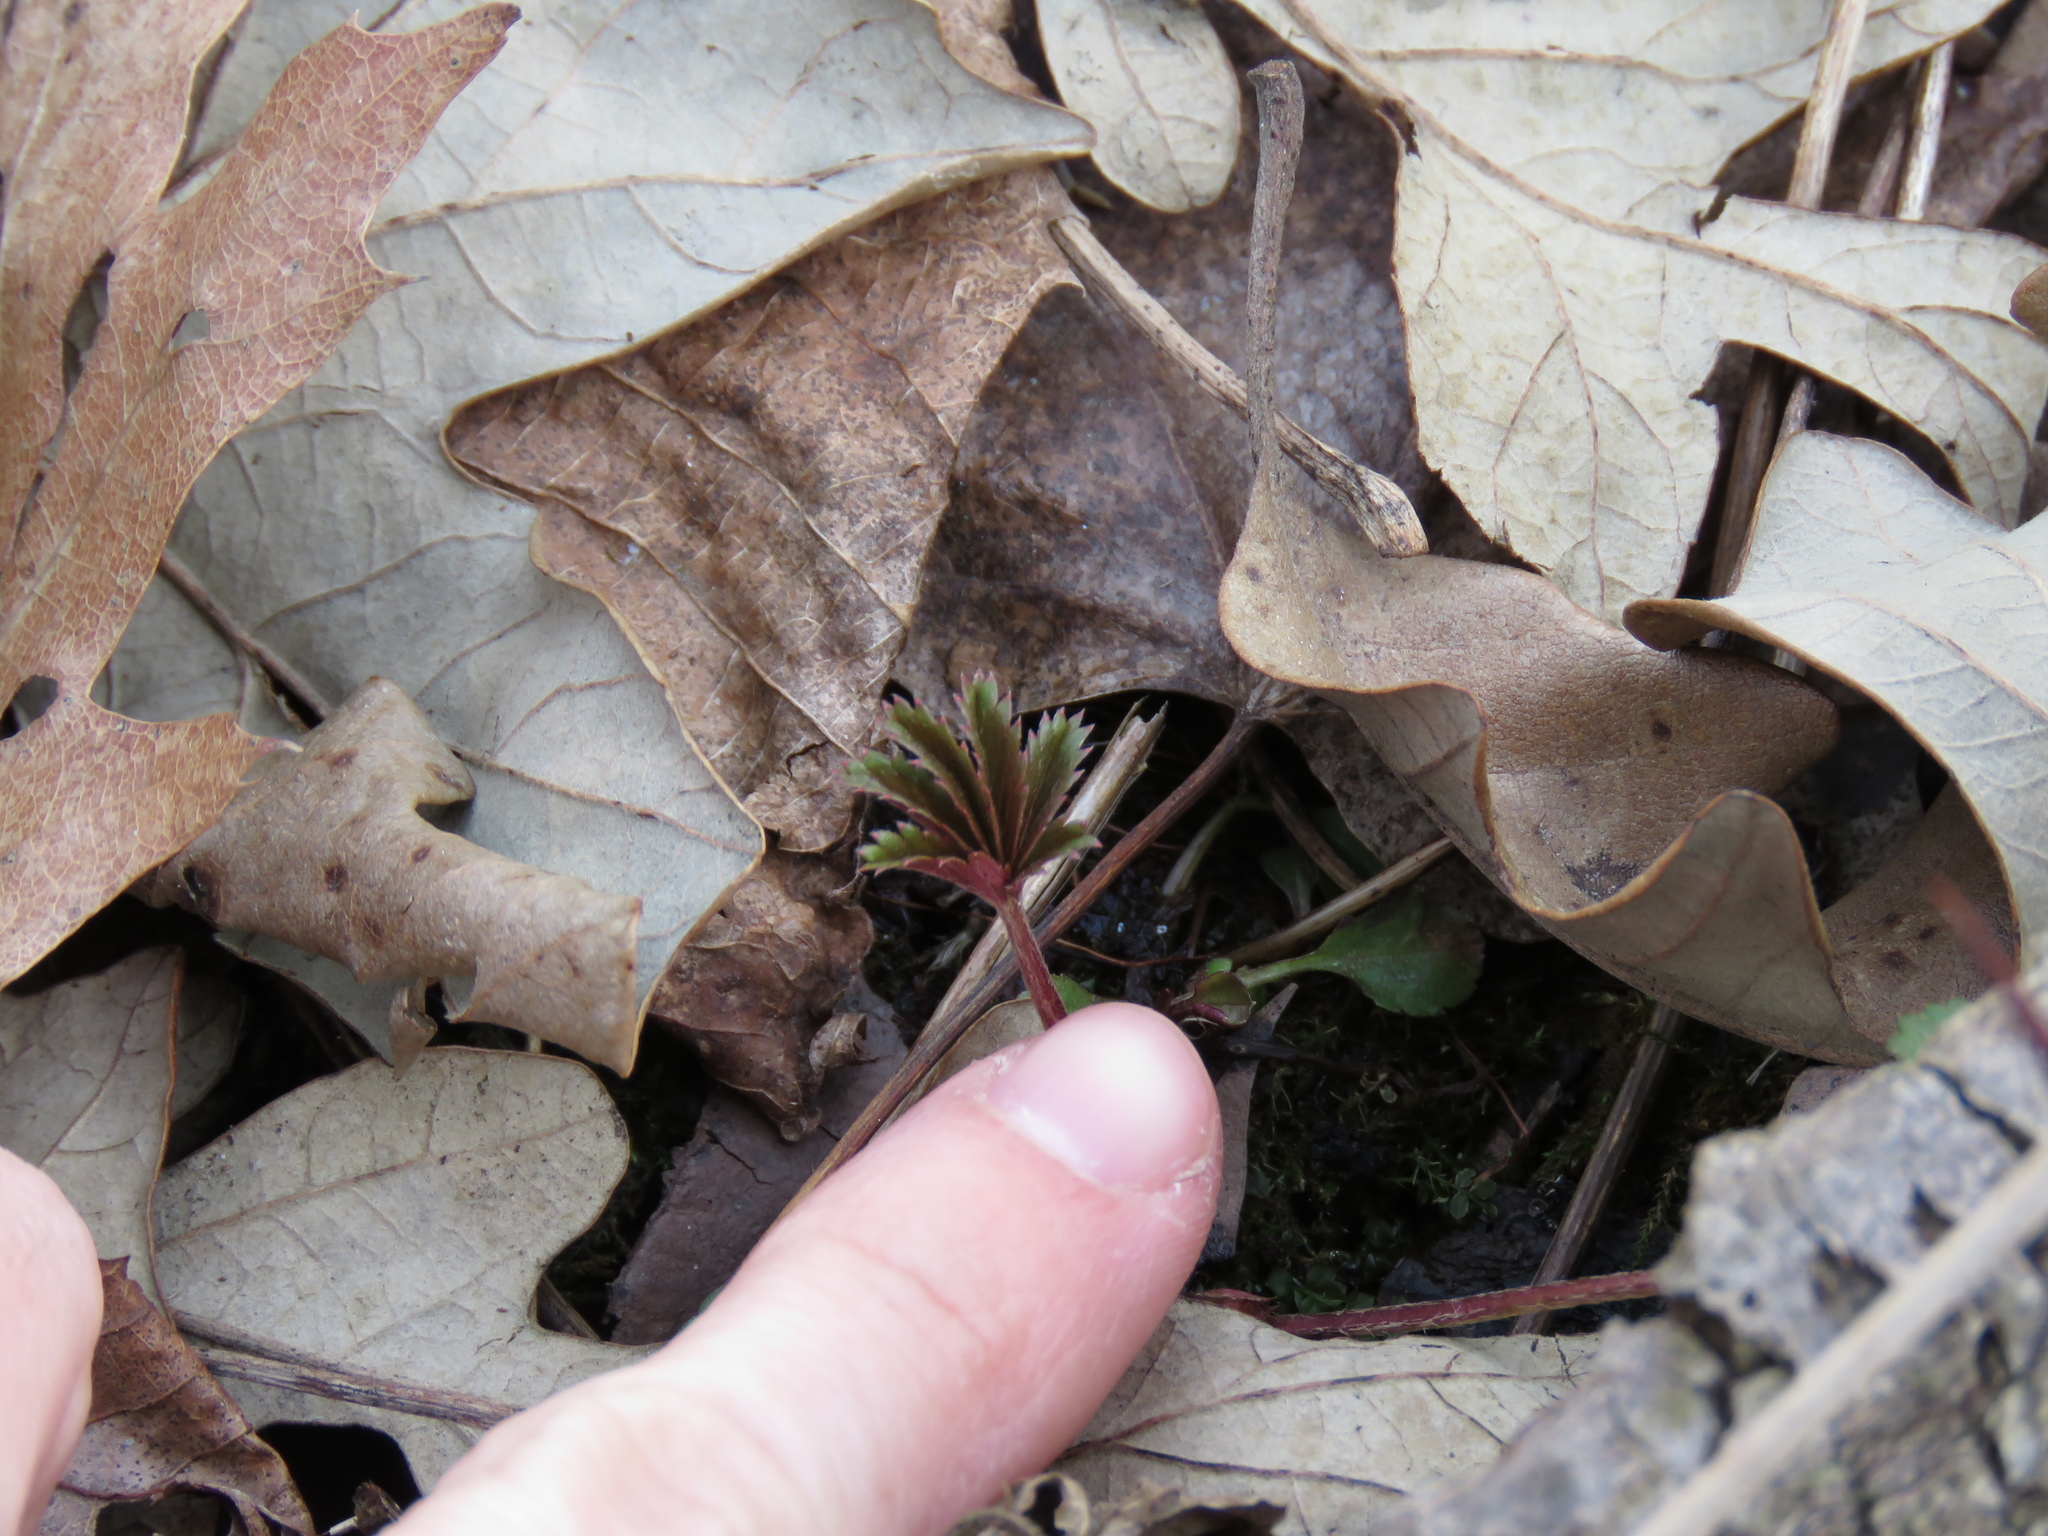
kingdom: Plantae
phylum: Tracheophyta
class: Magnoliopsida
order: Rosales
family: Rosaceae
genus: Potentilla
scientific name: Potentilla simplex
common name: Old field cinquefoil
